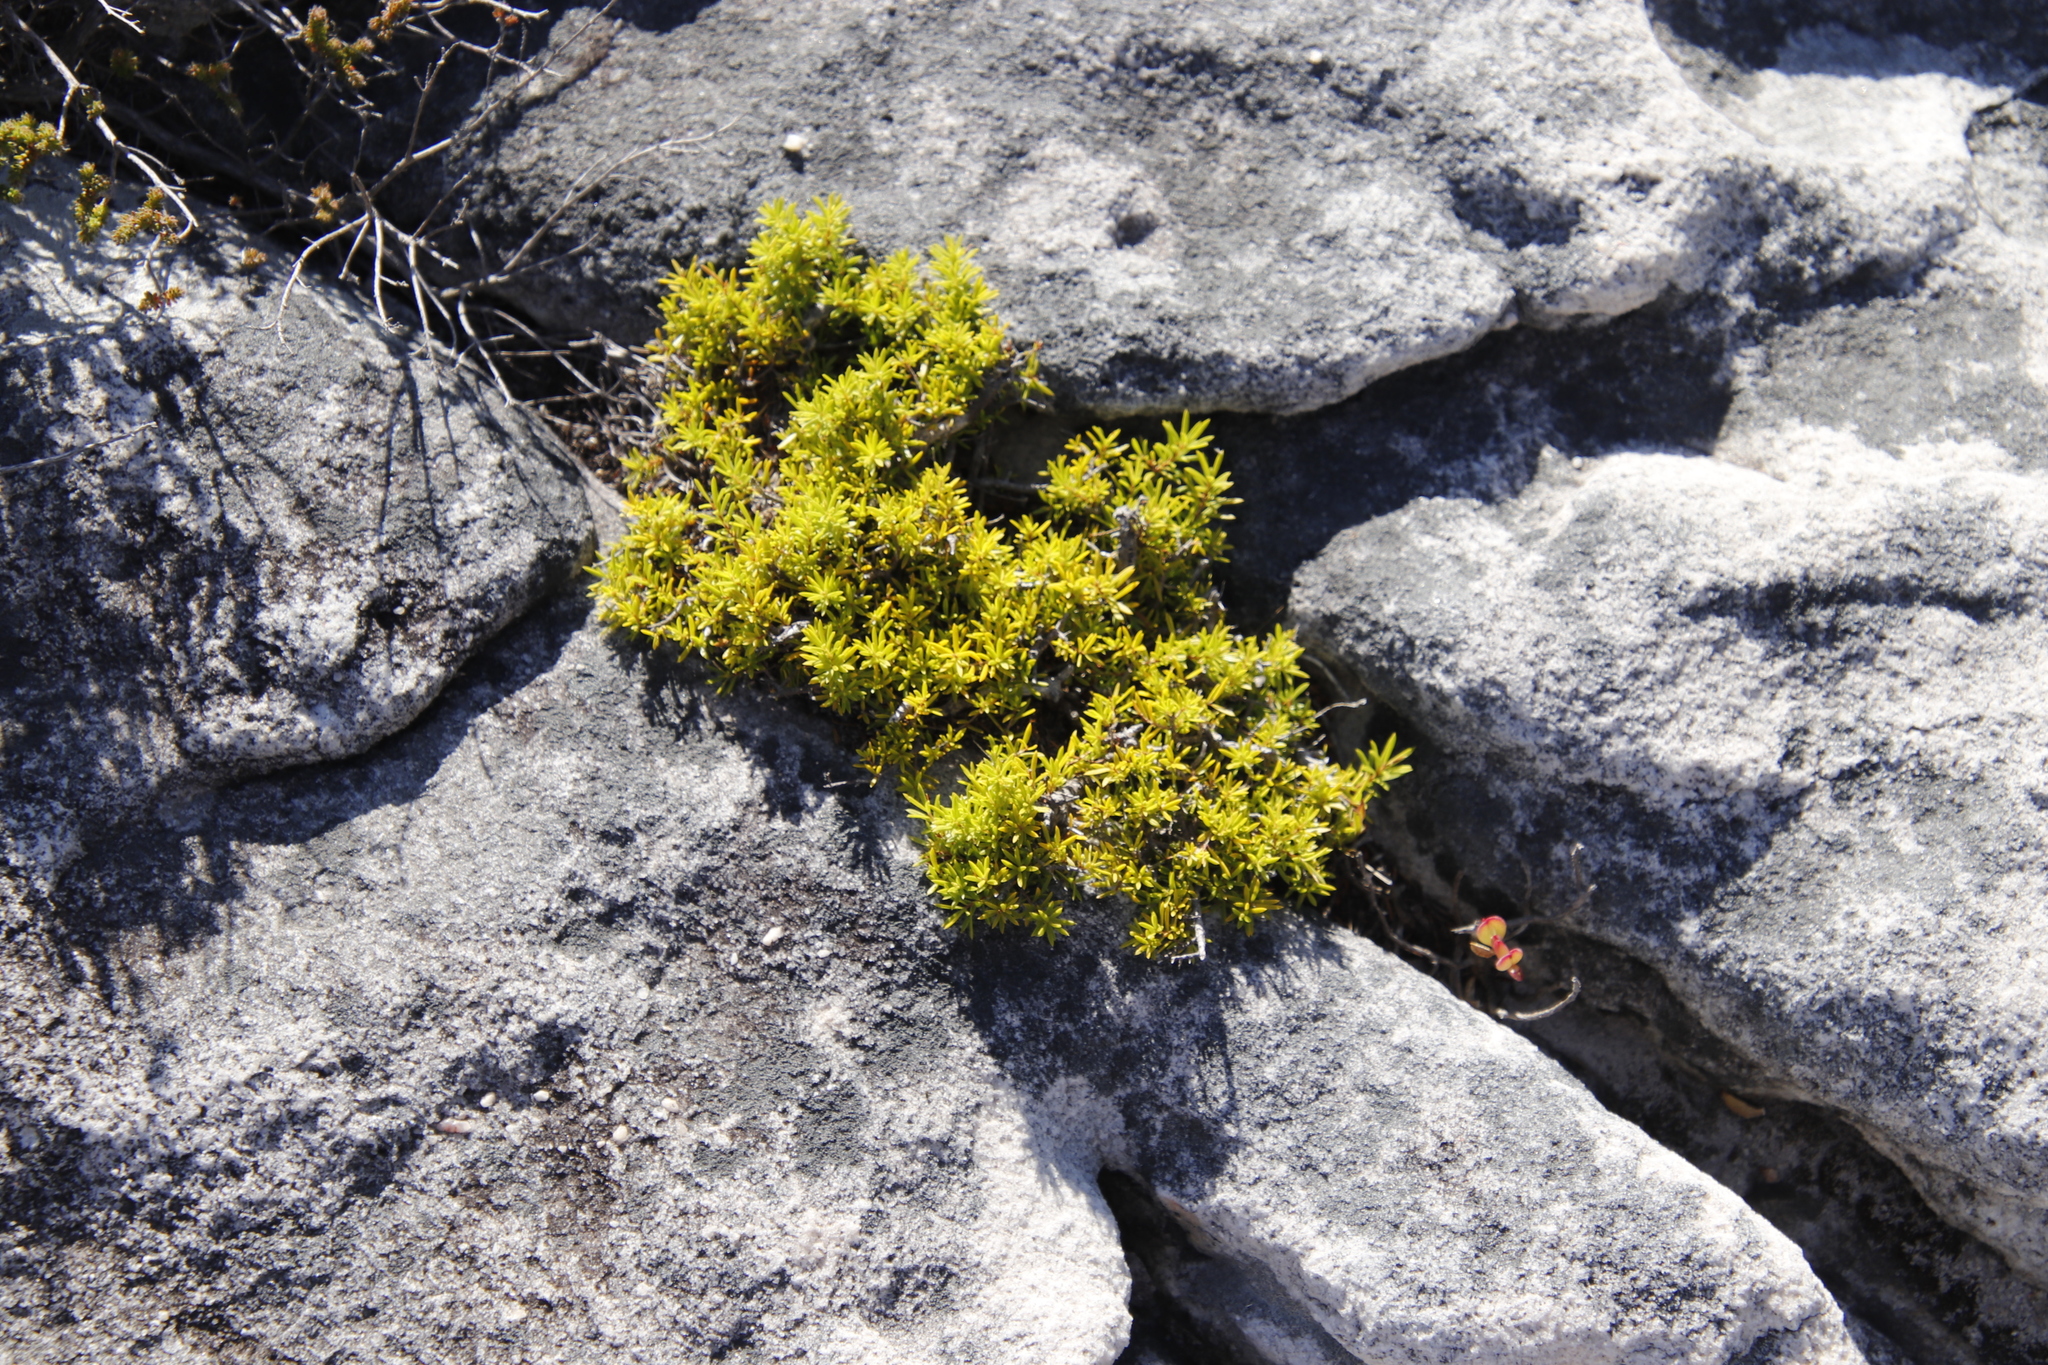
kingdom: Plantae
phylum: Tracheophyta
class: Magnoliopsida
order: Sapindales
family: Rutaceae
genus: Coleonema
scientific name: Coleonema album
